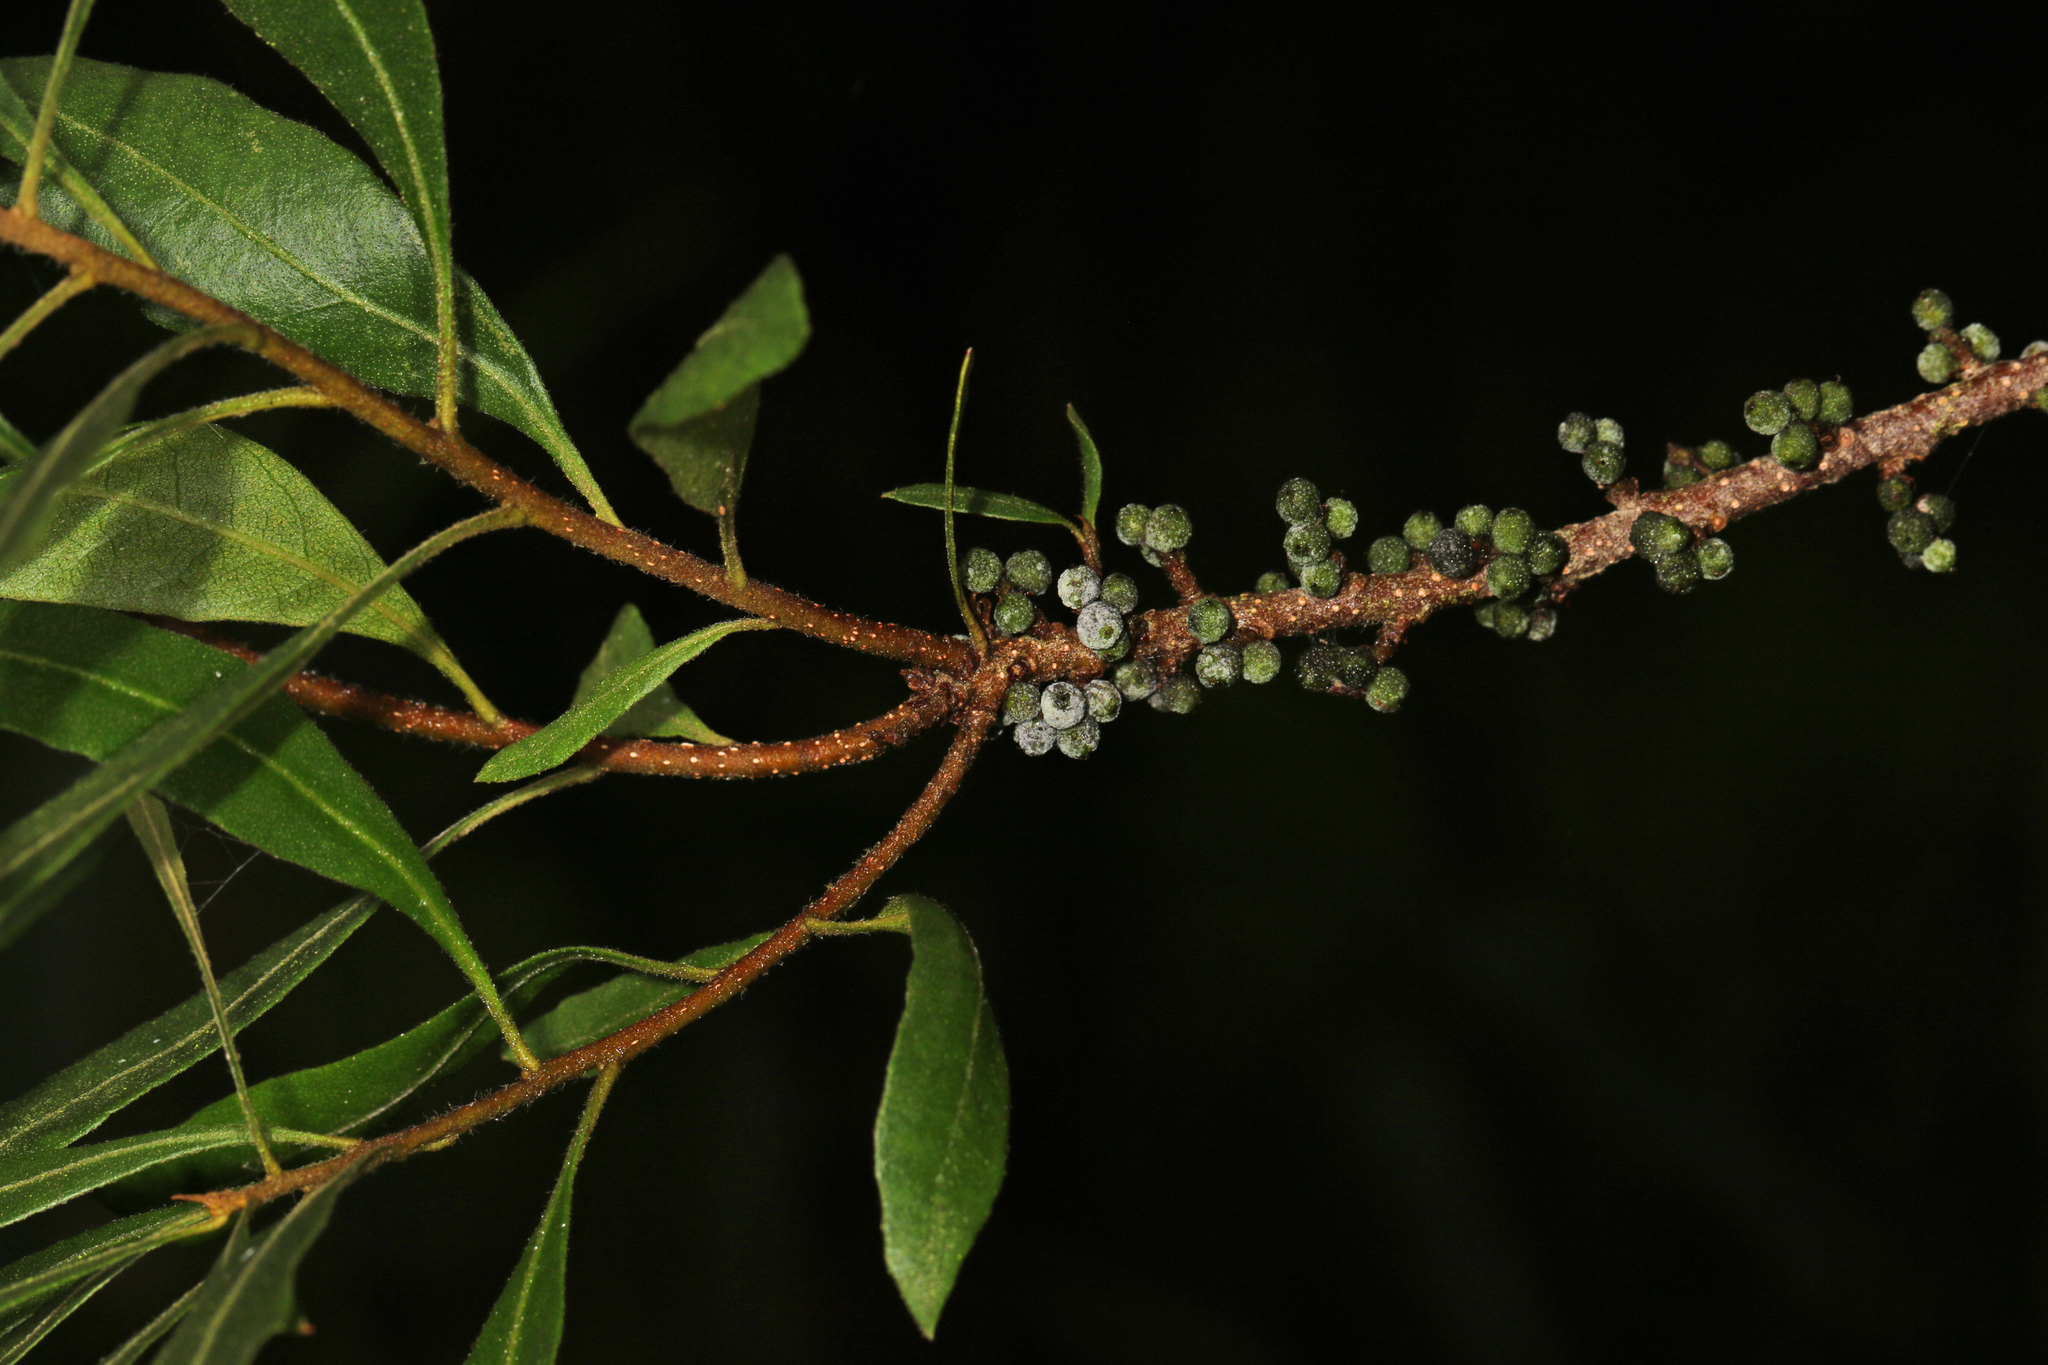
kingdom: Plantae
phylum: Tracheophyta
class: Magnoliopsida
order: Fagales
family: Myricaceae
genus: Morella
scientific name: Morella cerifera
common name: Wax myrtle
